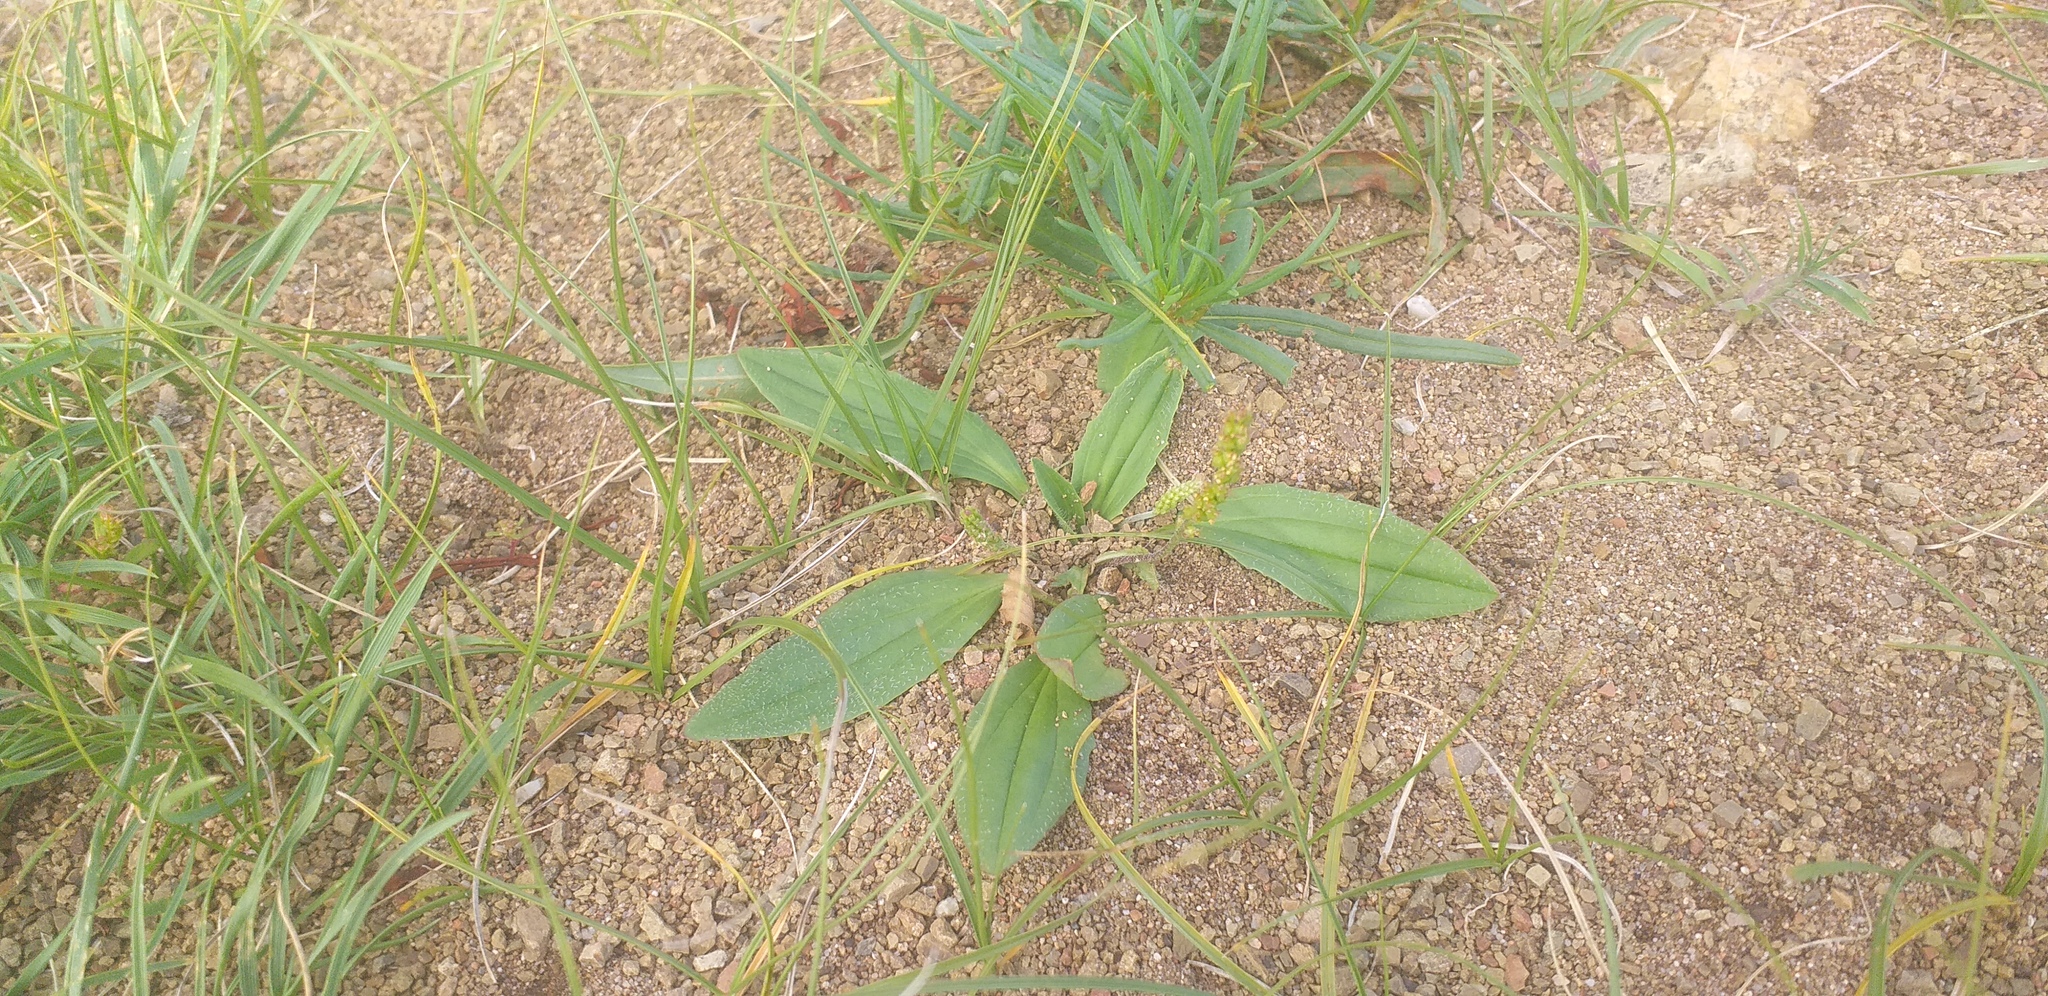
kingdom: Plantae
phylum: Tracheophyta
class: Magnoliopsida
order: Lamiales
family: Plantaginaceae
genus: Plantago
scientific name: Plantago depressa
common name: Depressed plantain
